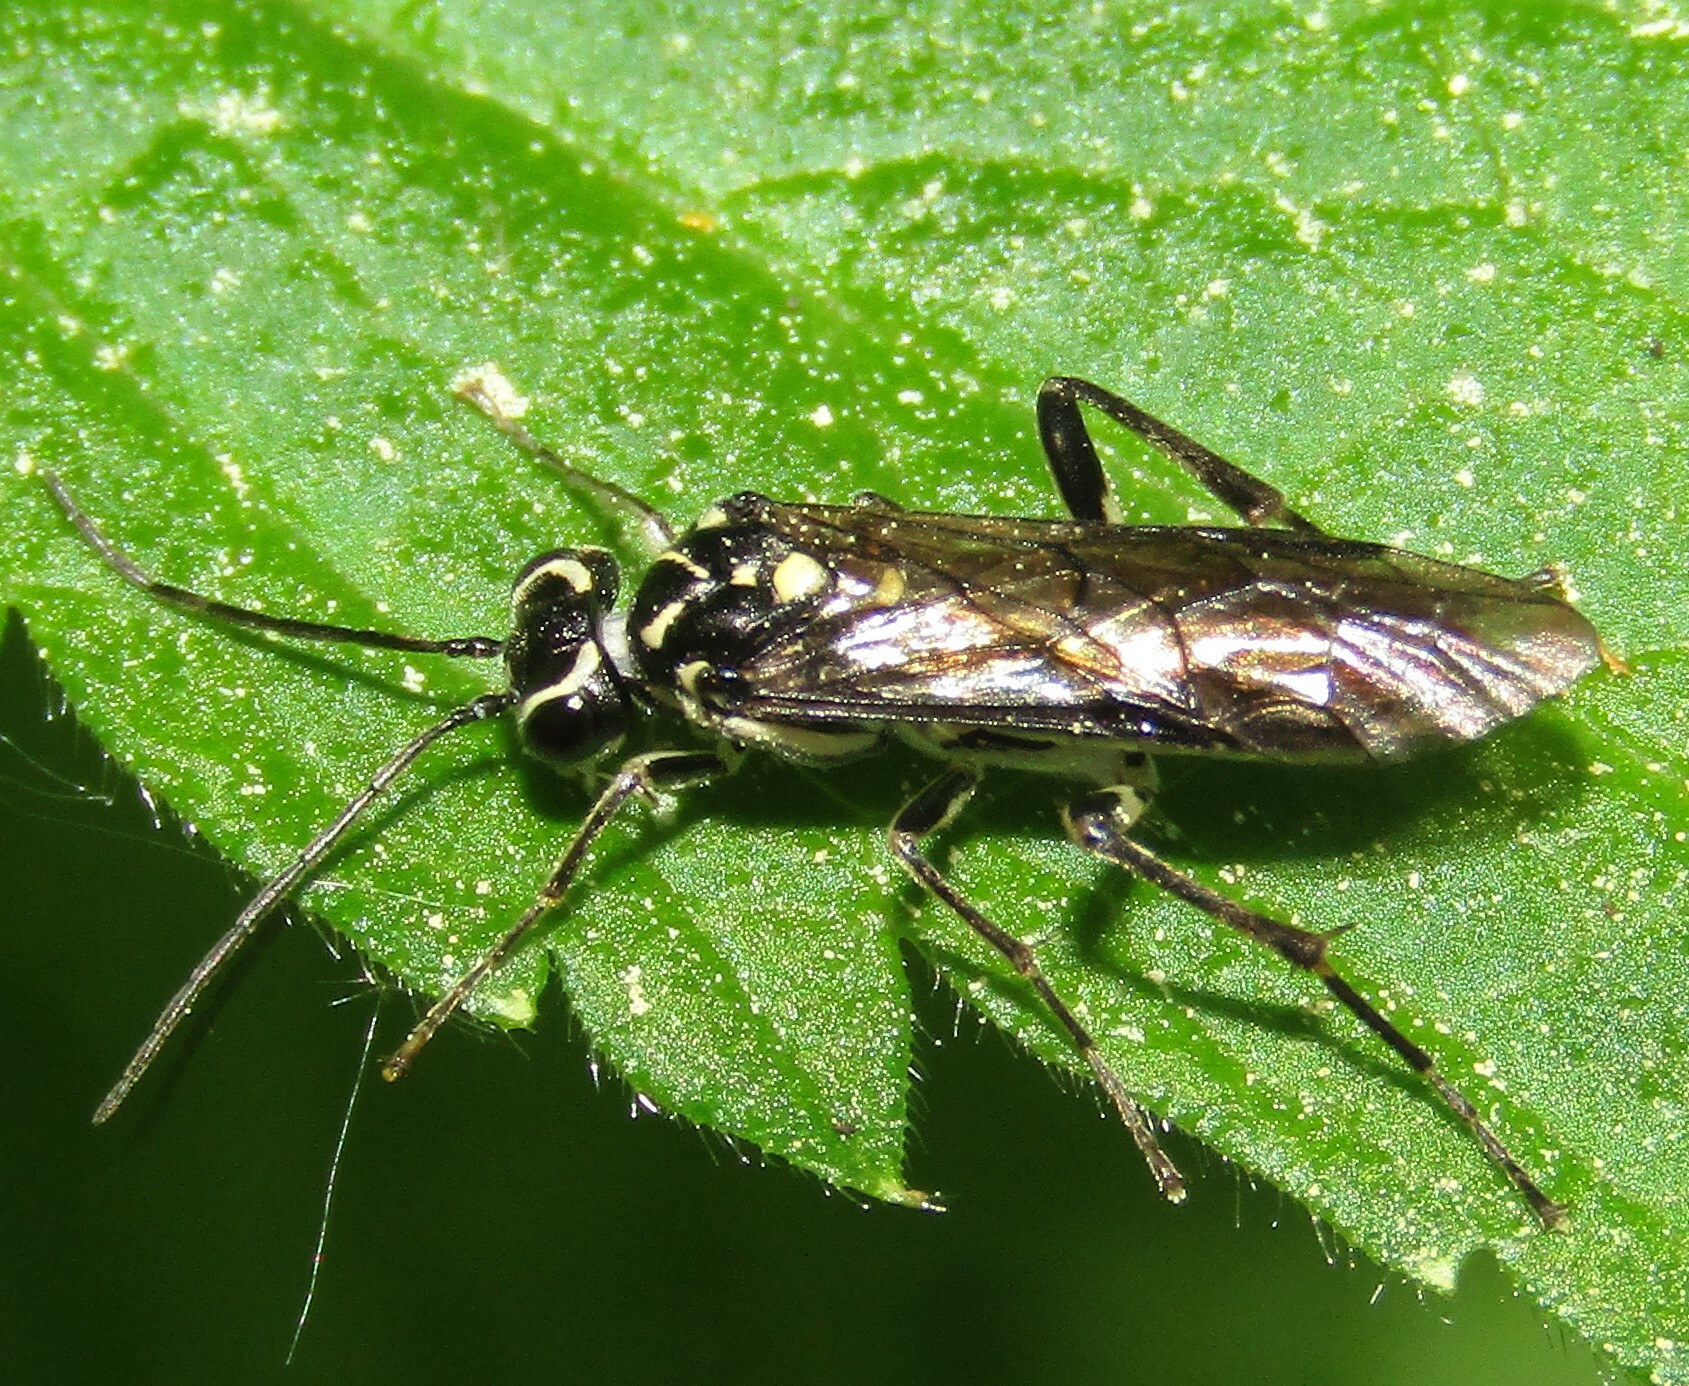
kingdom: Animalia
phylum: Arthropoda
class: Insecta
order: Hymenoptera
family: Tenthredinidae
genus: Pachyprotasis
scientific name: Pachyprotasis rapae
